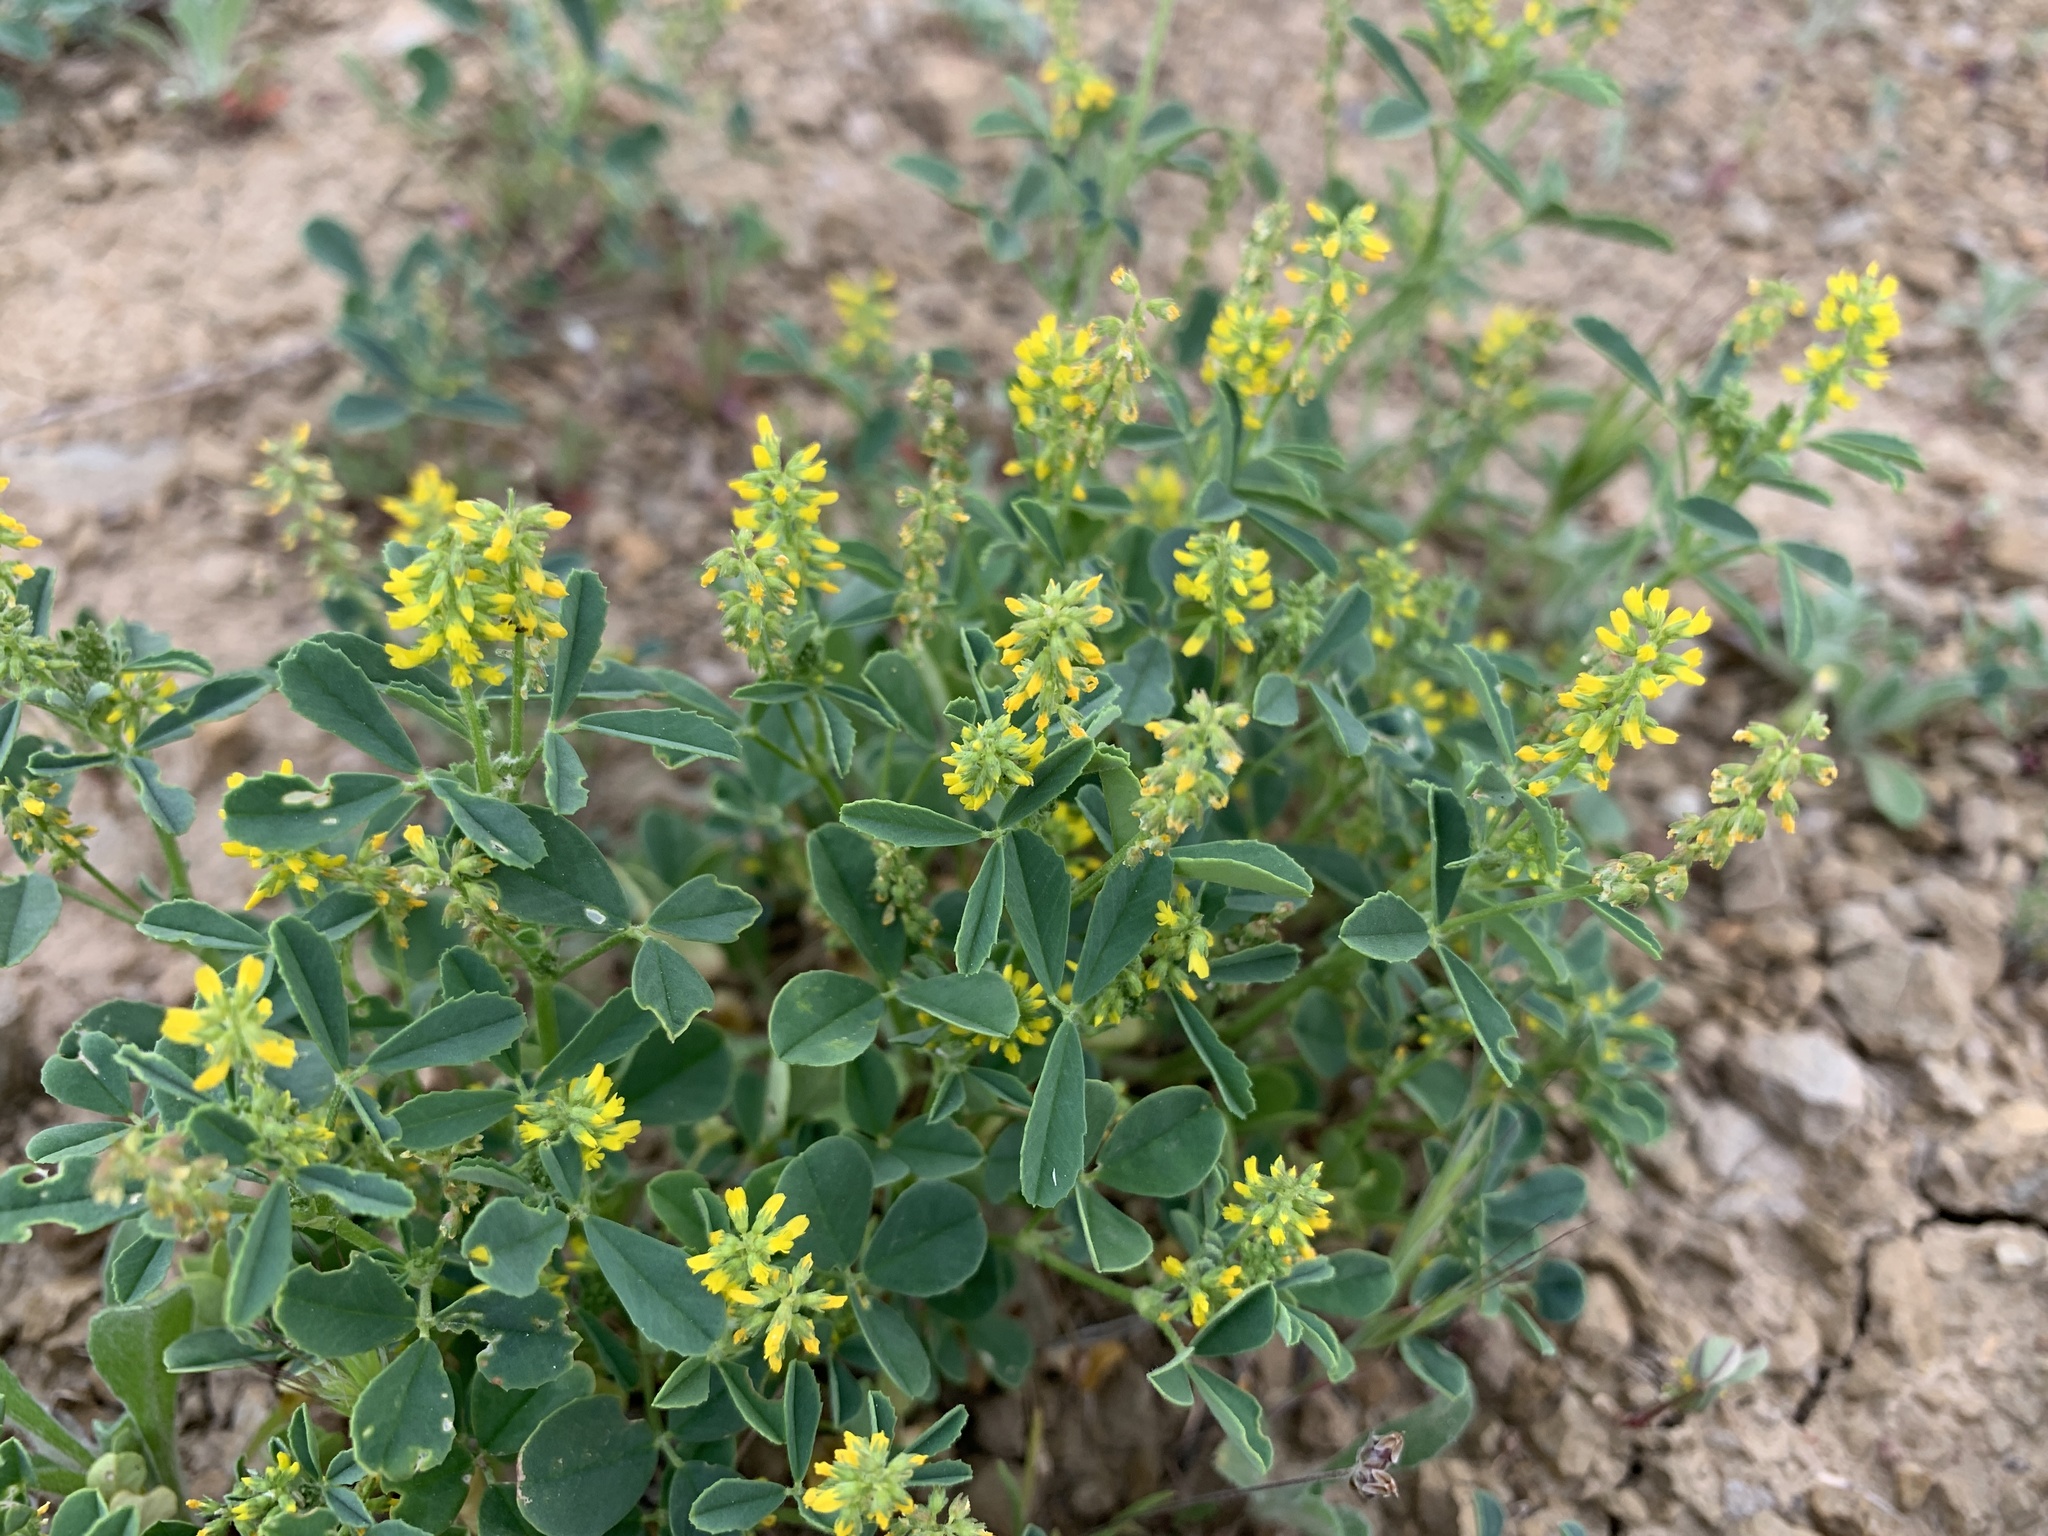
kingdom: Plantae
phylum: Tracheophyta
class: Magnoliopsida
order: Fabales
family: Fabaceae
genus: Melilotus
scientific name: Melilotus indicus
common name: Small melilot
